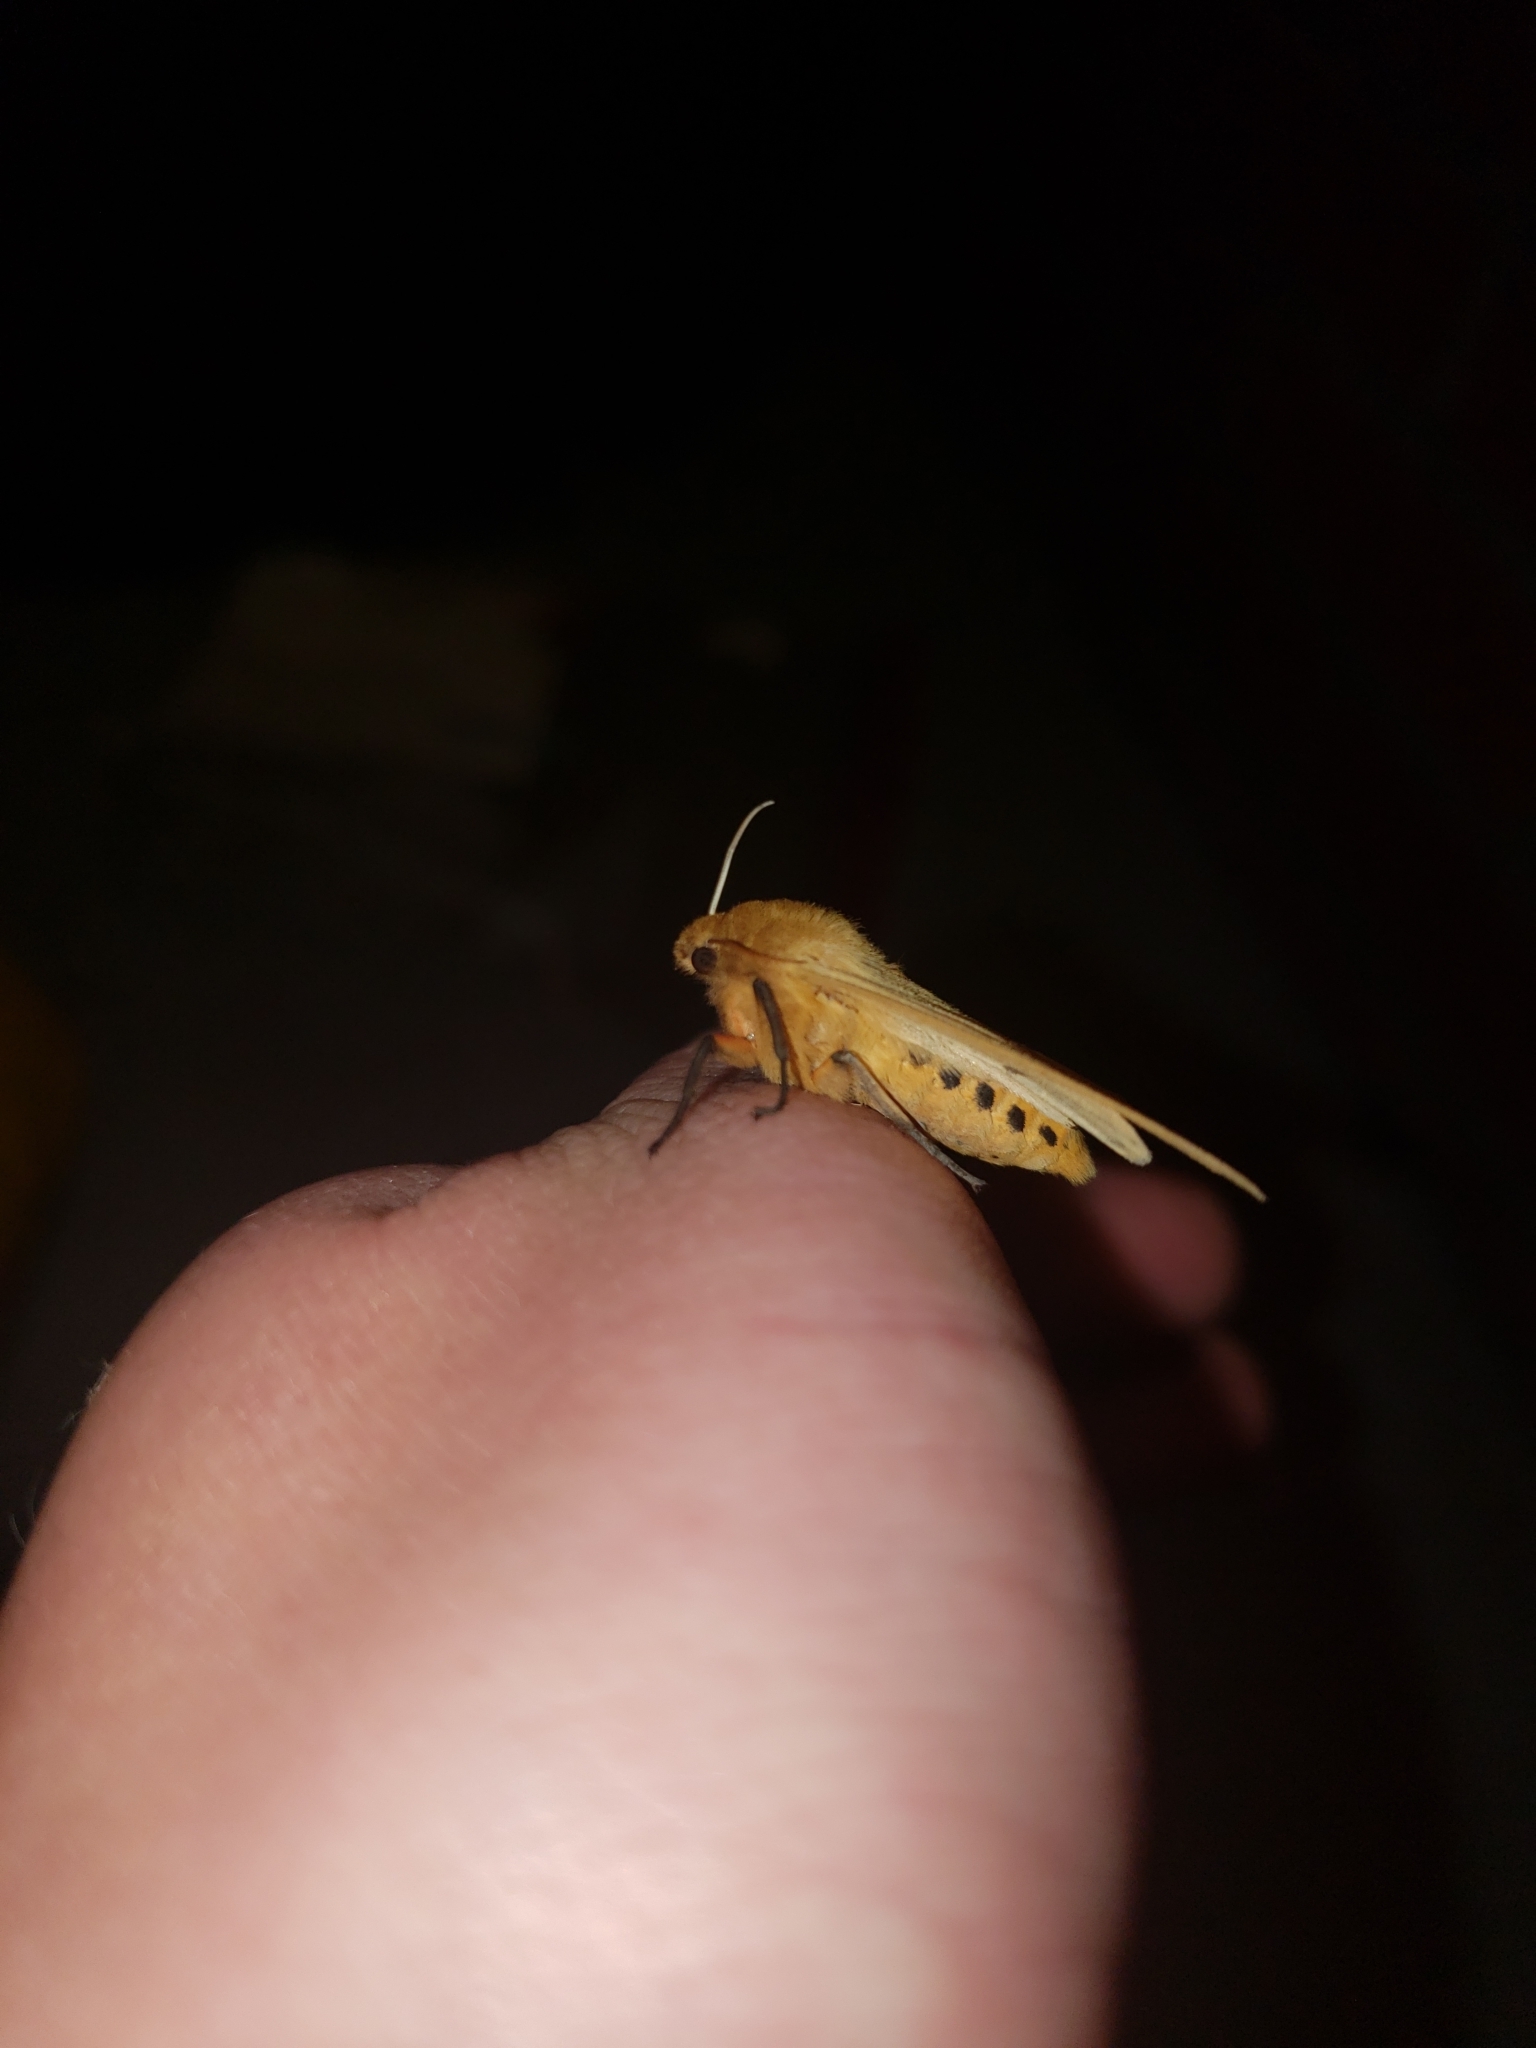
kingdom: Animalia
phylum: Arthropoda
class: Insecta
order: Lepidoptera
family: Erebidae
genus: Pyrrharctia
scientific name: Pyrrharctia isabella
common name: Isabella tiger moth
